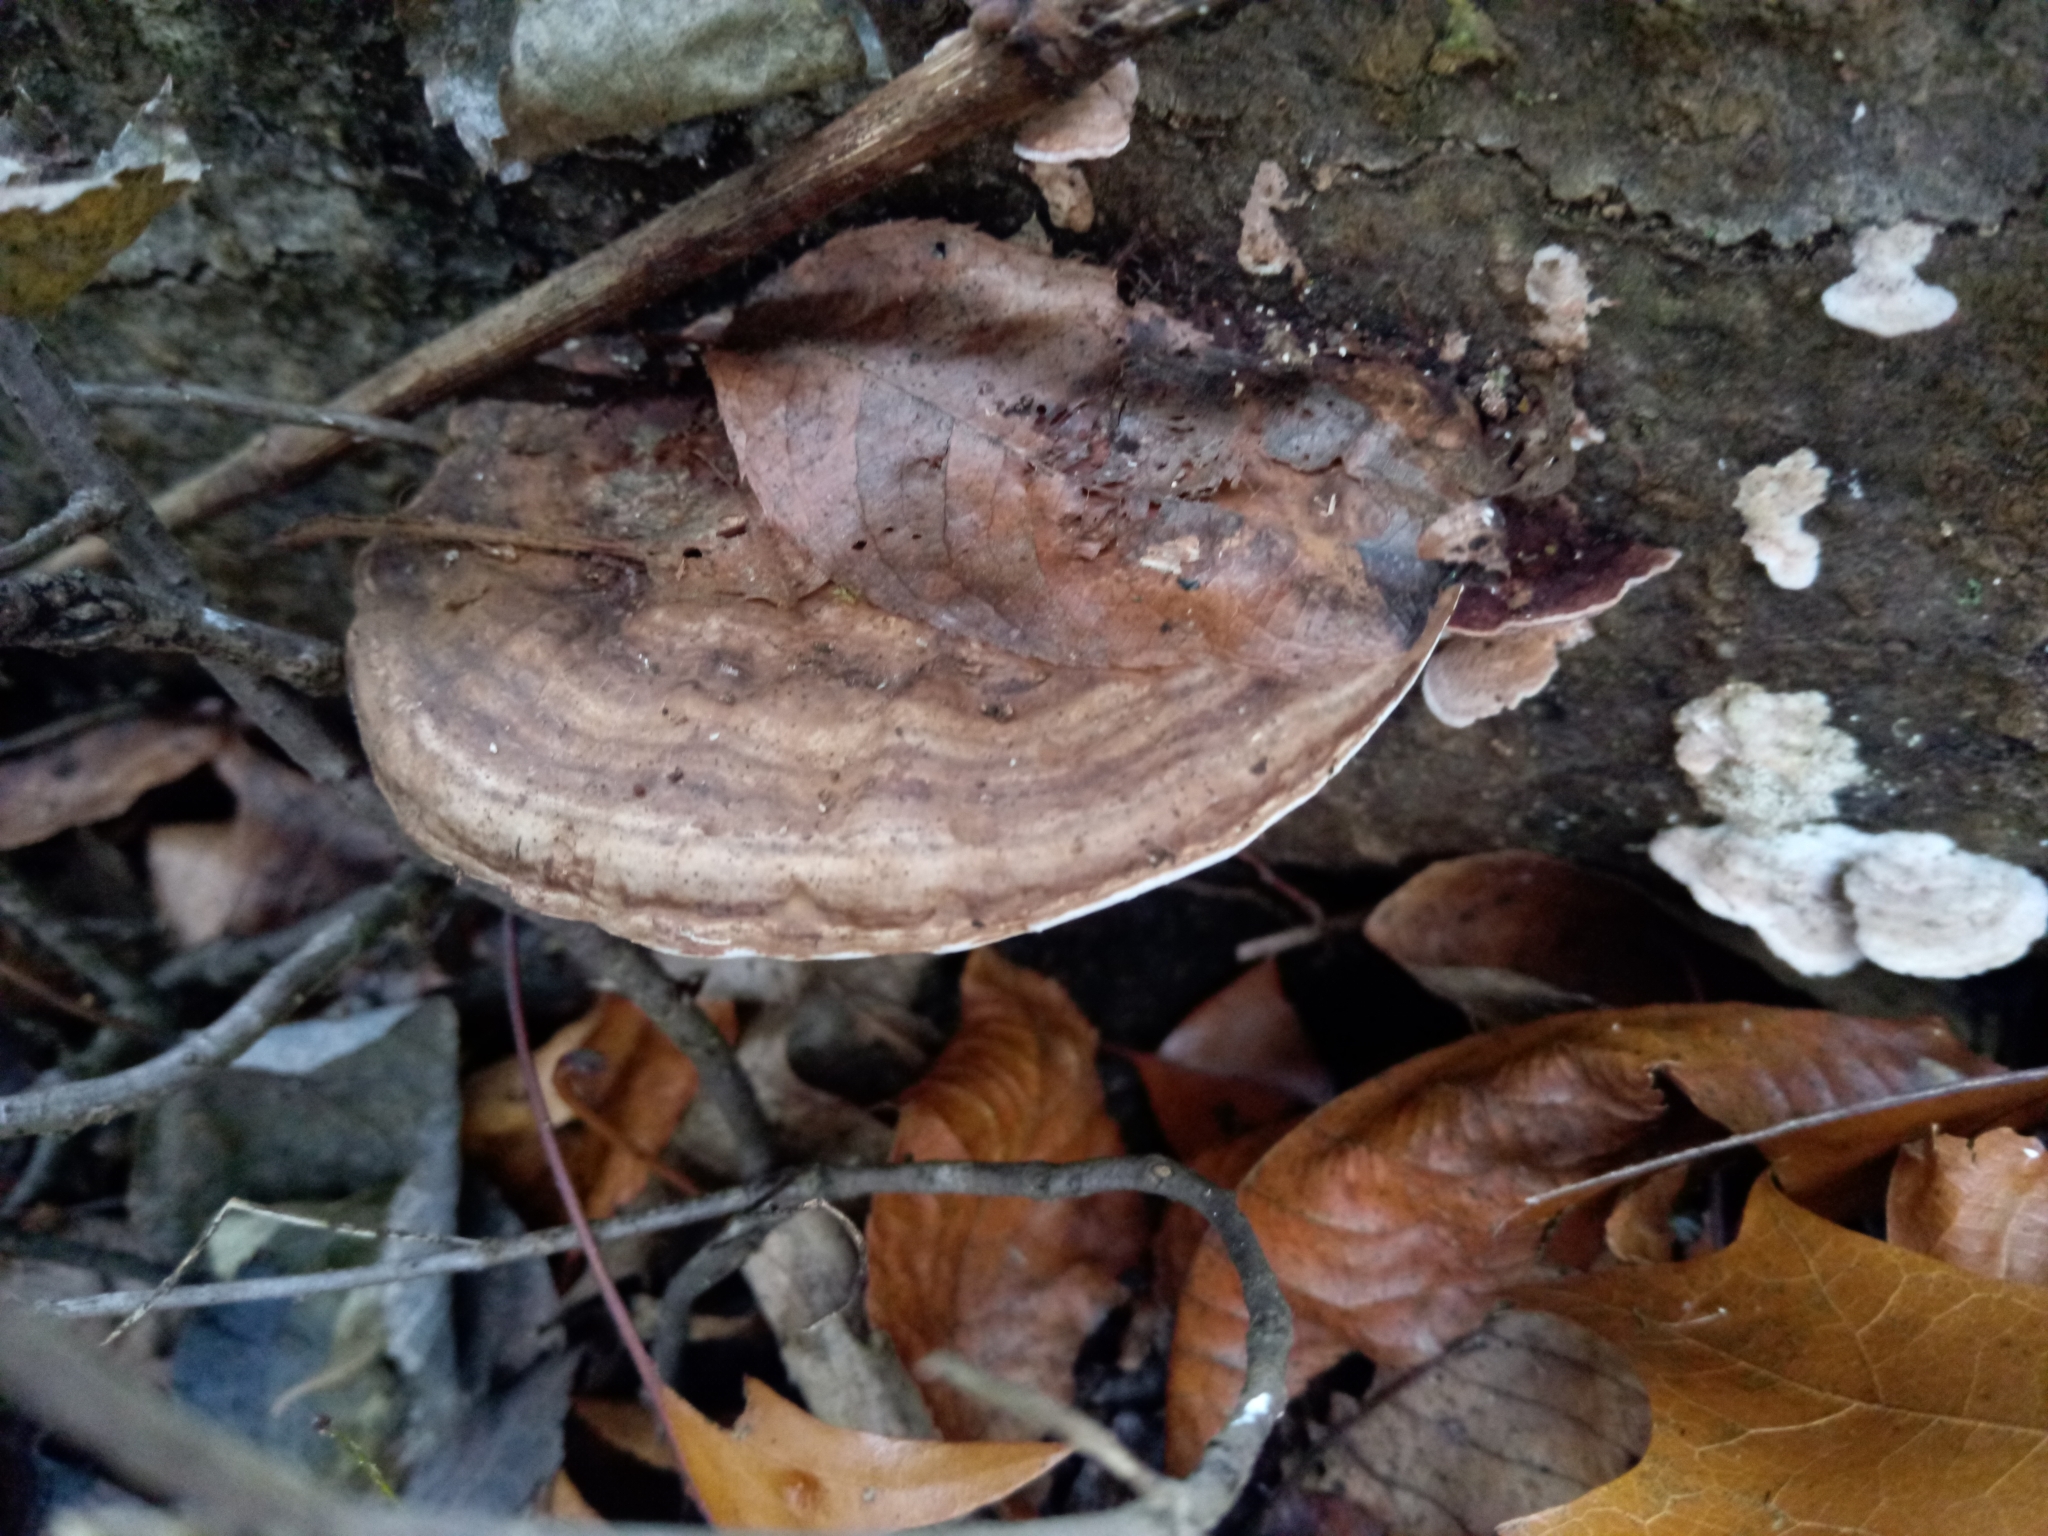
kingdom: Fungi
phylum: Basidiomycota
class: Agaricomycetes
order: Polyporales
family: Polyporaceae
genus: Ganoderma
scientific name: Ganoderma lobatum
